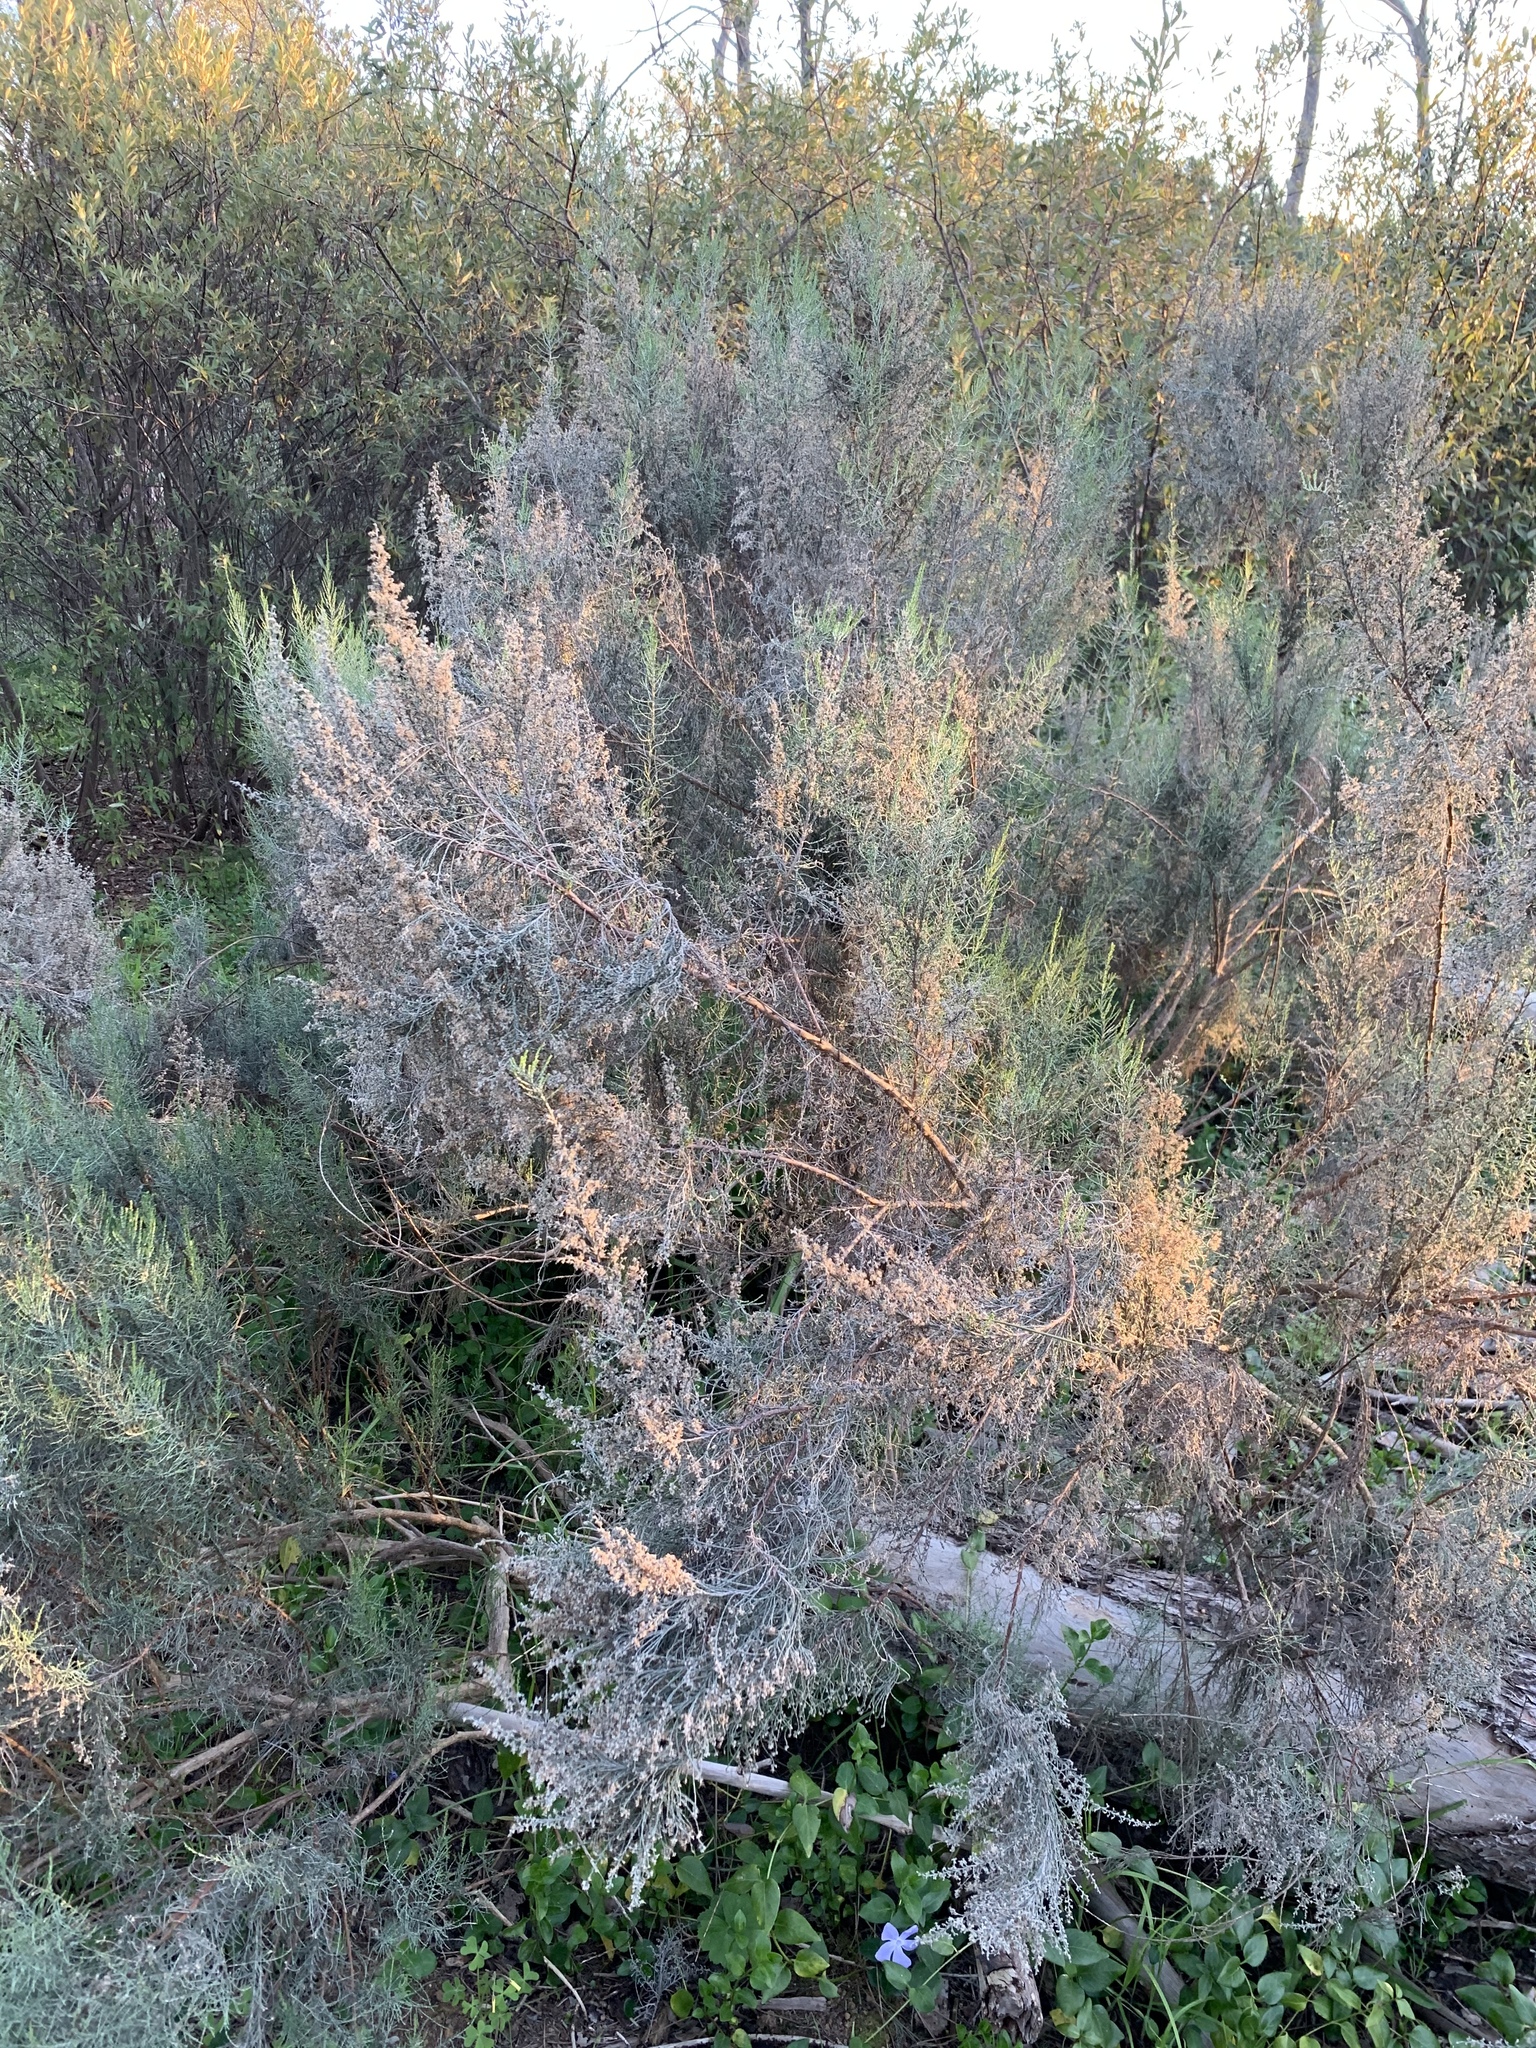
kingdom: Plantae
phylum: Tracheophyta
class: Magnoliopsida
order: Asterales
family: Asteraceae
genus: Dicerothamnus
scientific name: Dicerothamnus rhinocerotis
